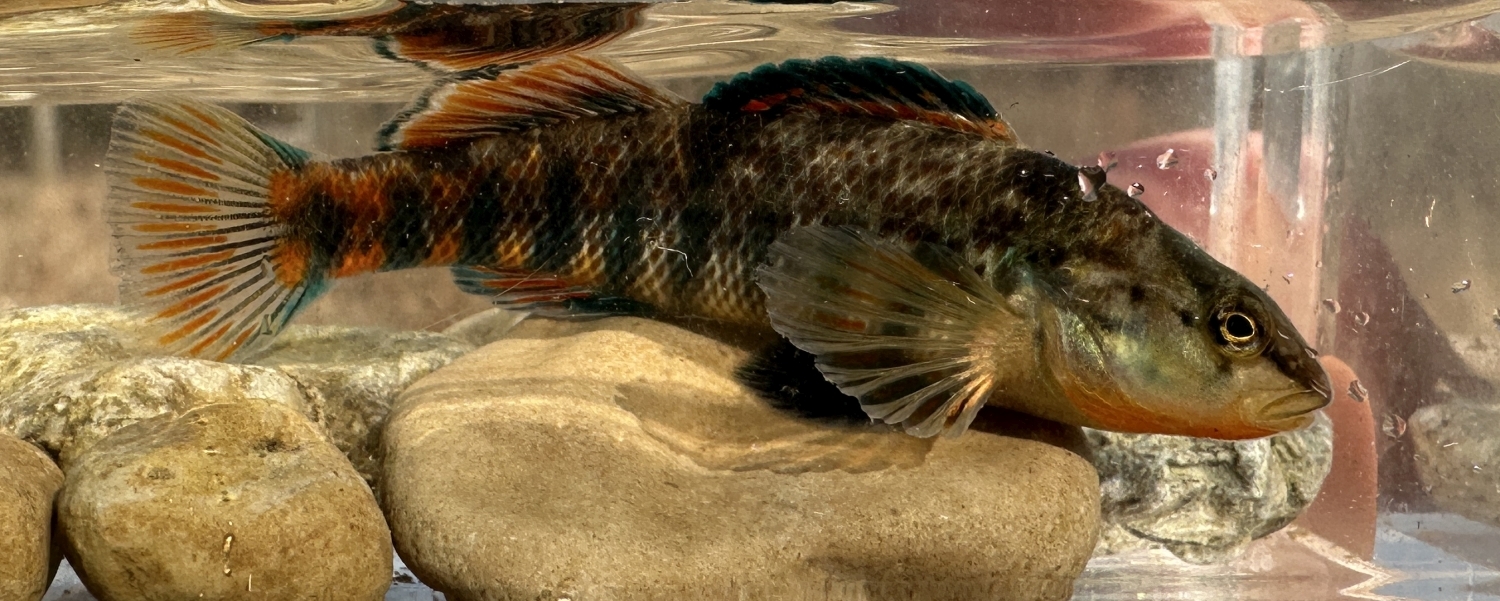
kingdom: Animalia
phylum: Chordata
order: Perciformes
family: Percidae
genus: Etheostoma
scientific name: Etheostoma caeruleum
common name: Rainbow darter
